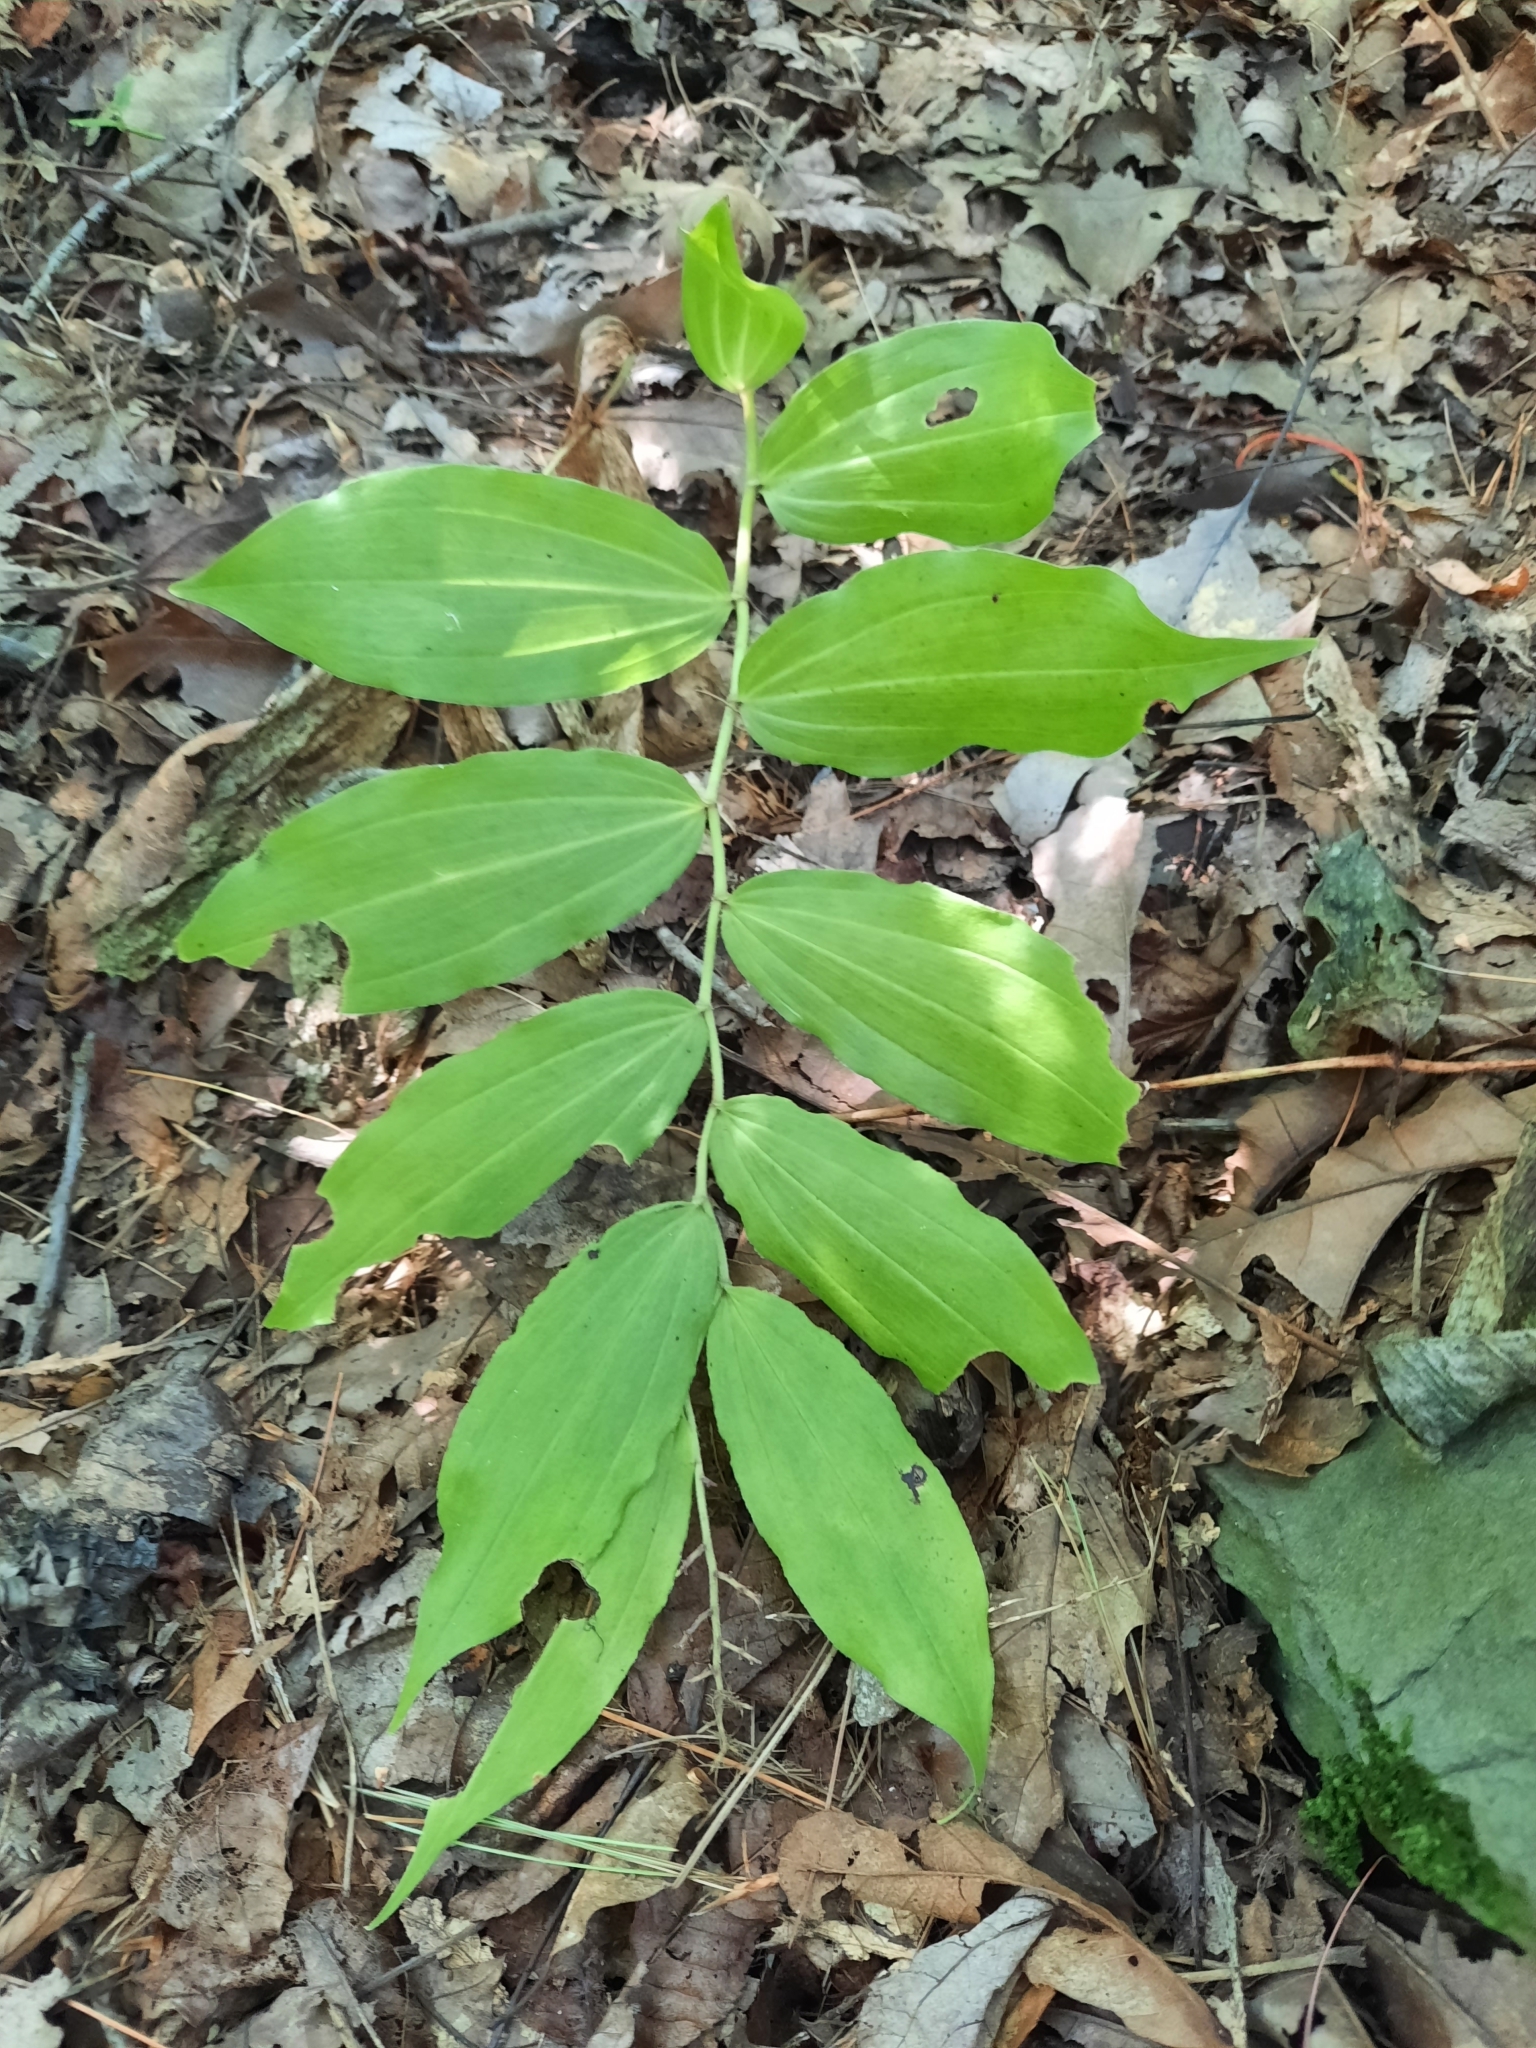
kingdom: Plantae
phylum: Tracheophyta
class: Liliopsida
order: Asparagales
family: Asparagaceae
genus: Maianthemum
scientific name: Maianthemum racemosum
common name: False spikenard
